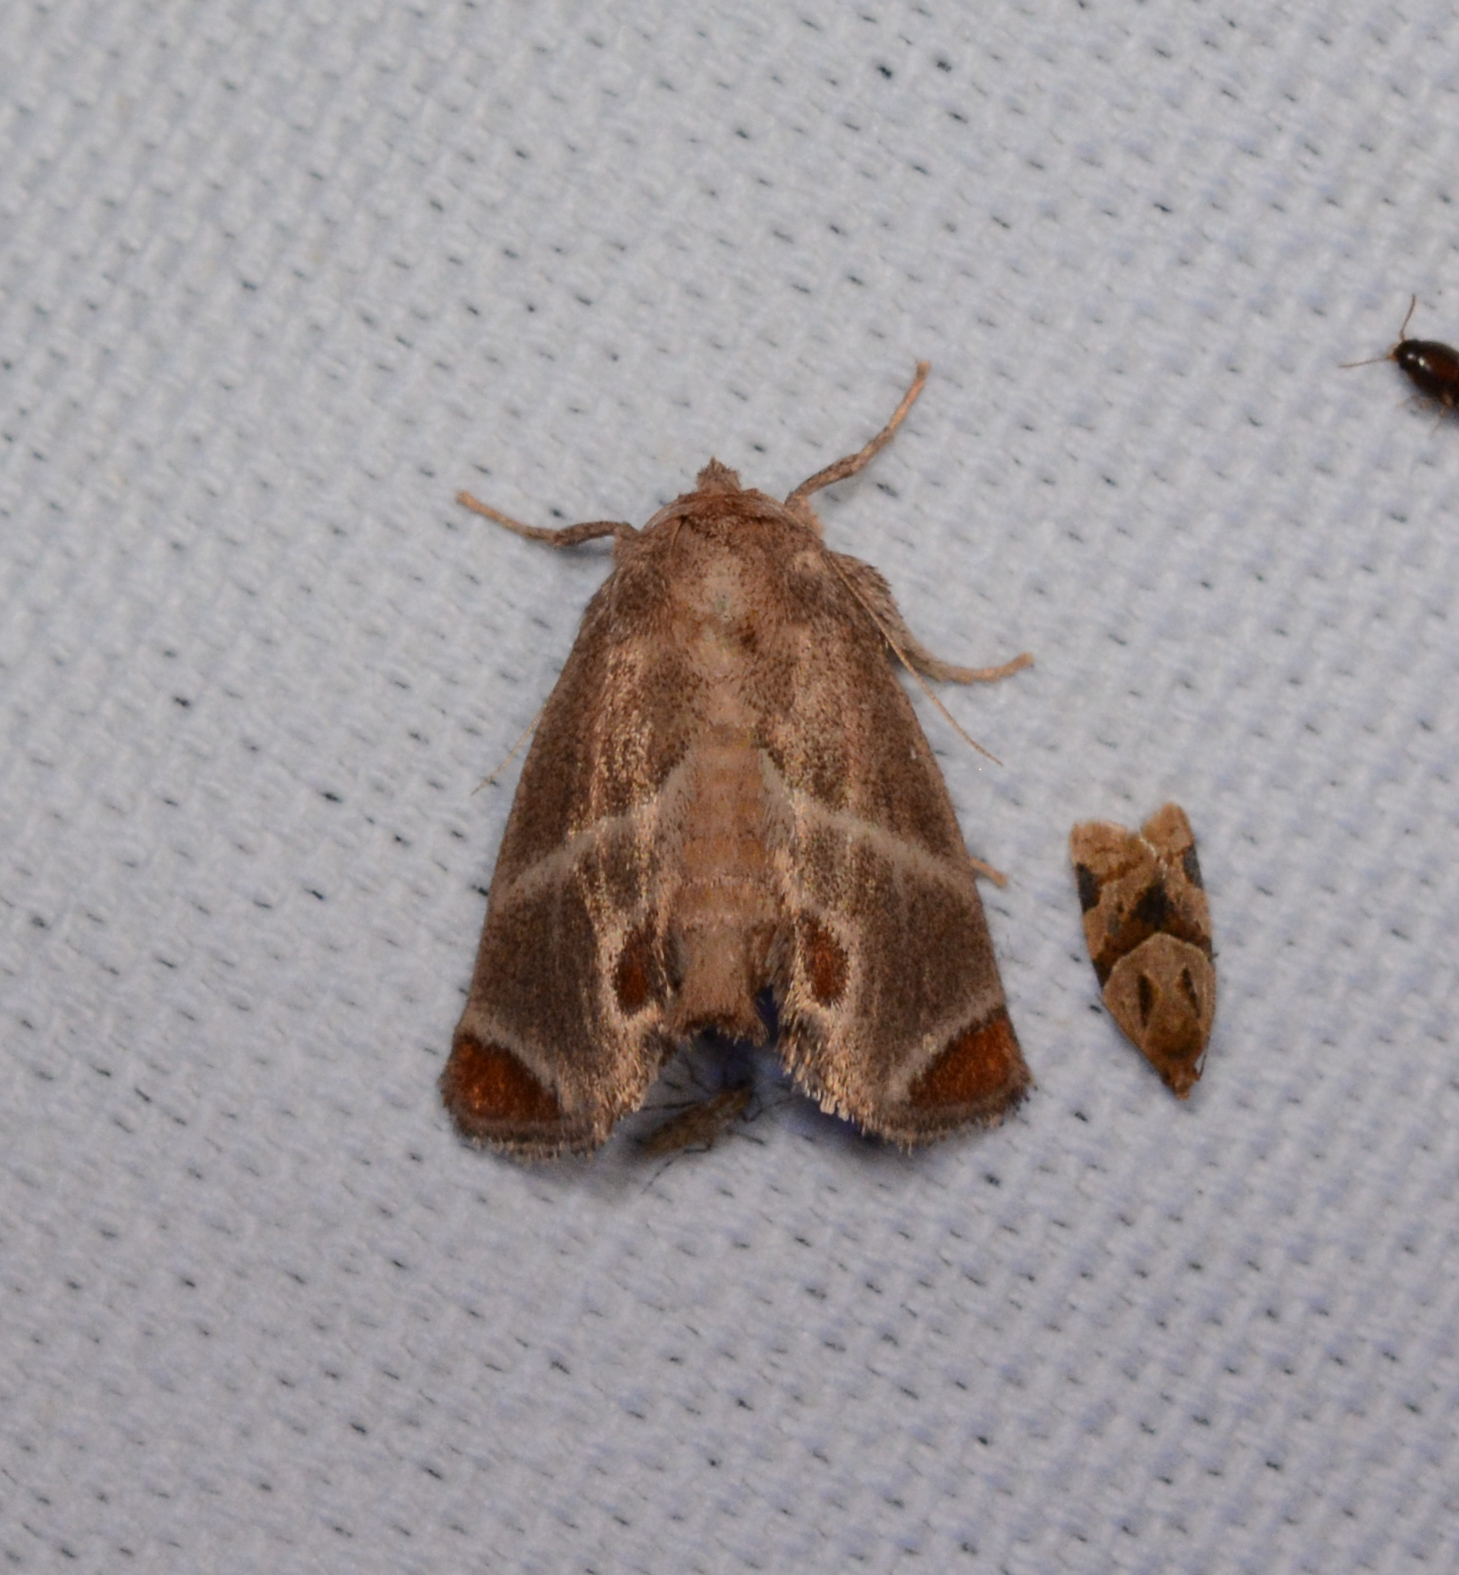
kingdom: Animalia
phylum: Arthropoda
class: Insecta
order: Lepidoptera
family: Limacodidae
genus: Apoda
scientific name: Apoda biguttata
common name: Shagreened slug moth
